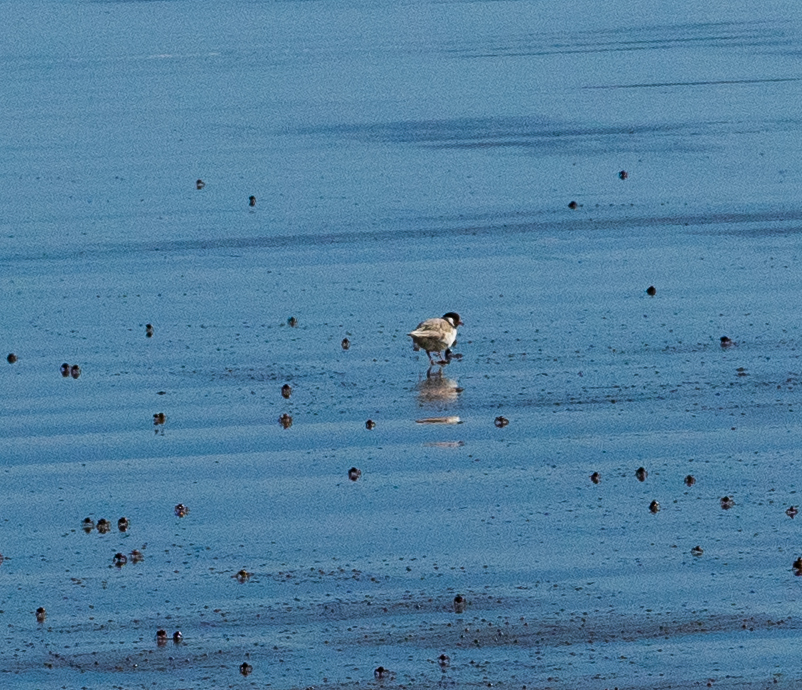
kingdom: Animalia
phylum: Chordata
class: Aves
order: Charadriiformes
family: Charadriidae
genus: Thinornis
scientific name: Thinornis cucullatus
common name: Hooded dotterel
